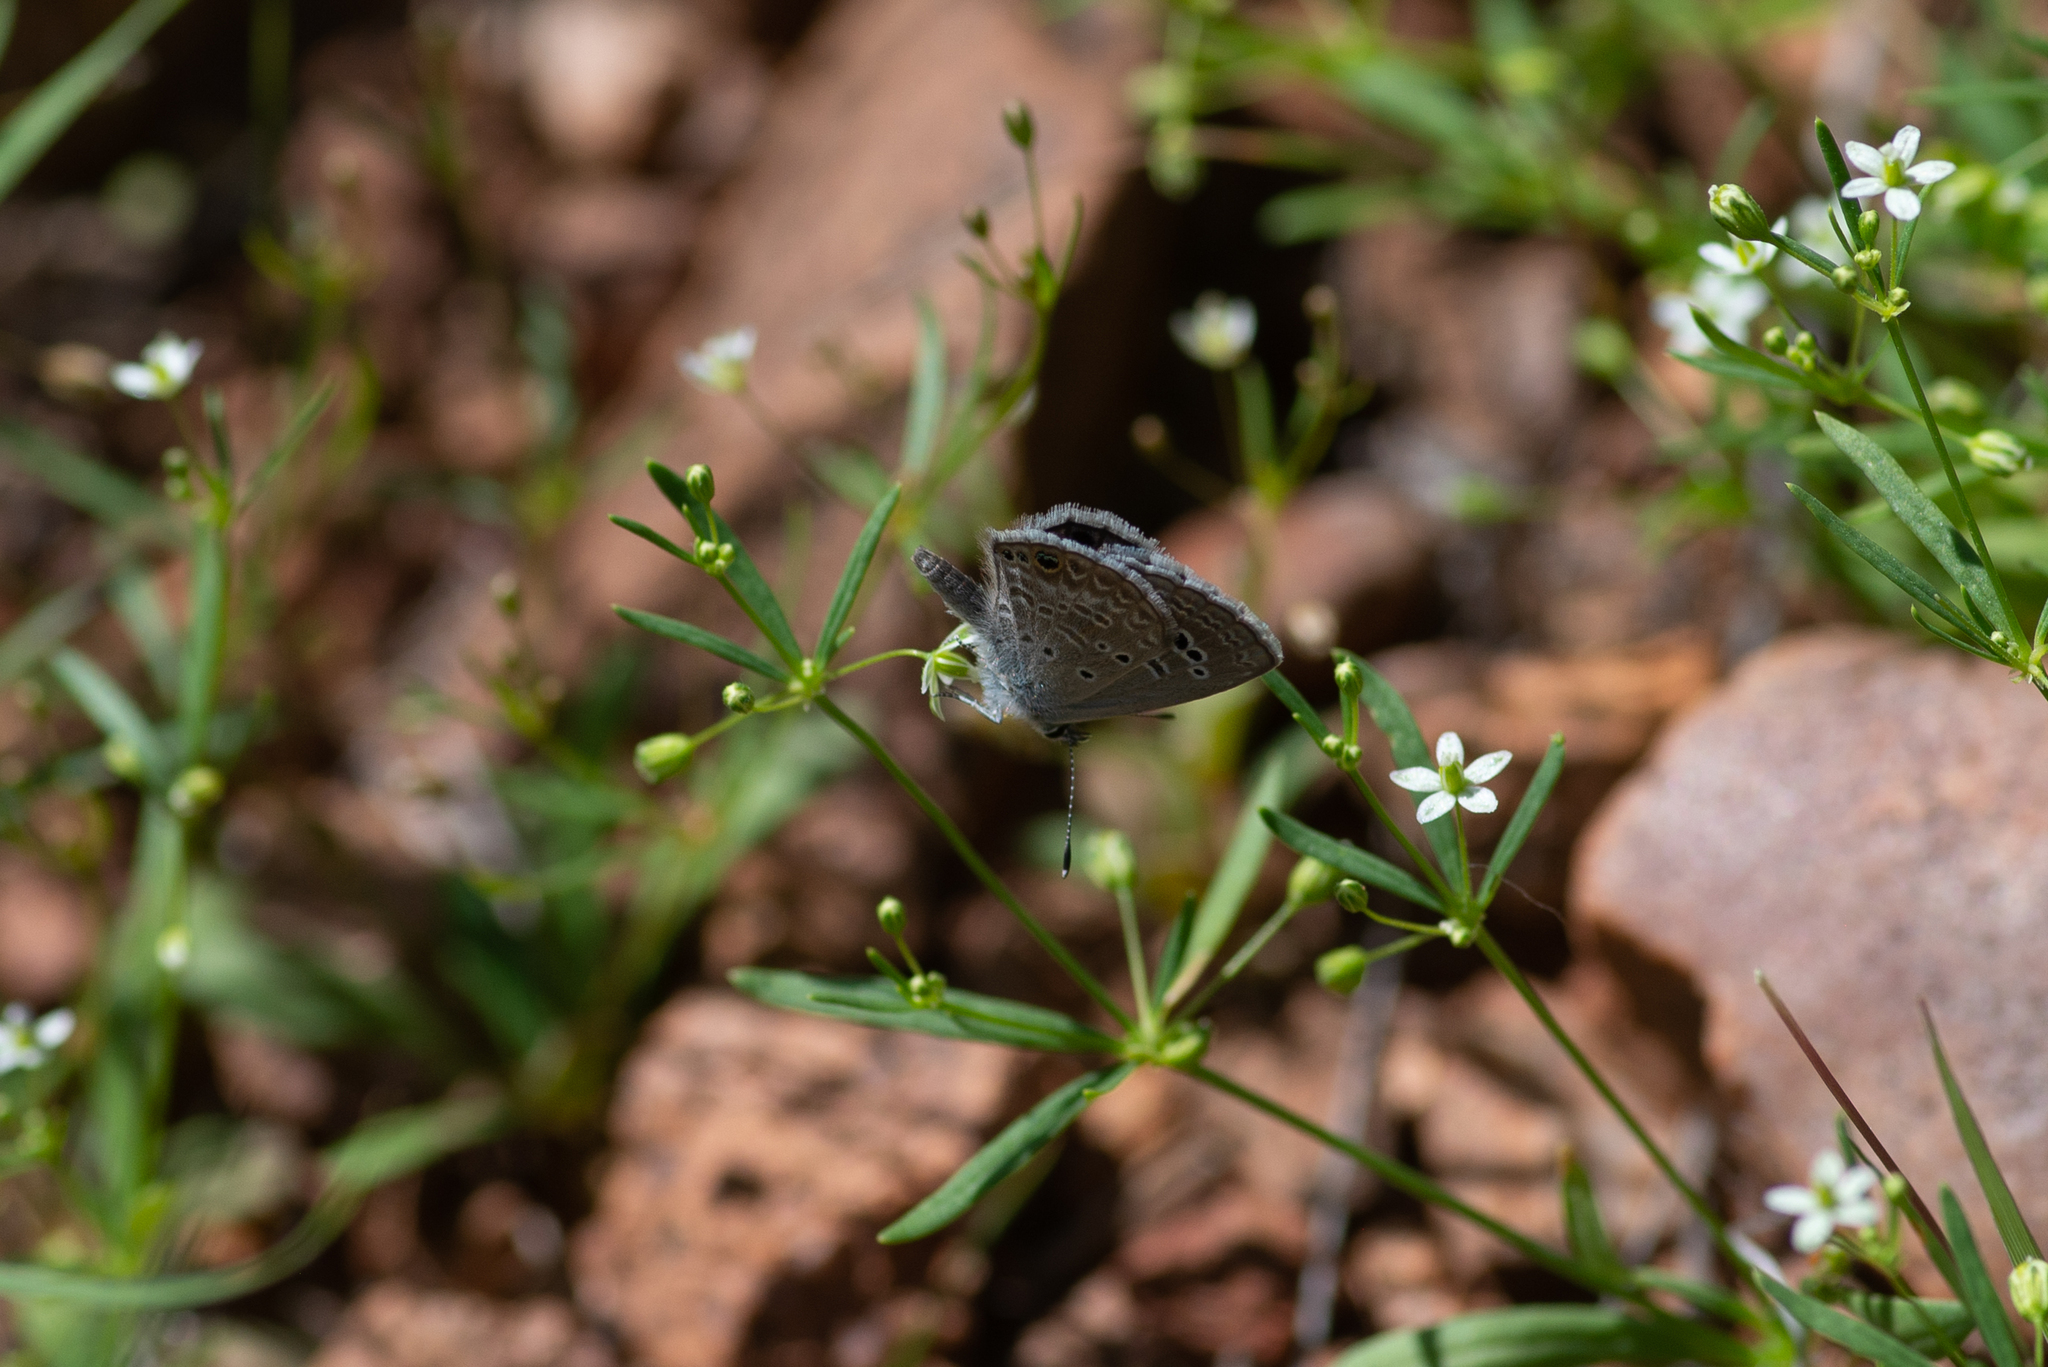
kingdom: Animalia
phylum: Arthropoda
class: Insecta
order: Lepidoptera
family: Lycaenidae
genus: Echinargus
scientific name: Echinargus isola
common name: Reakirt's blue
